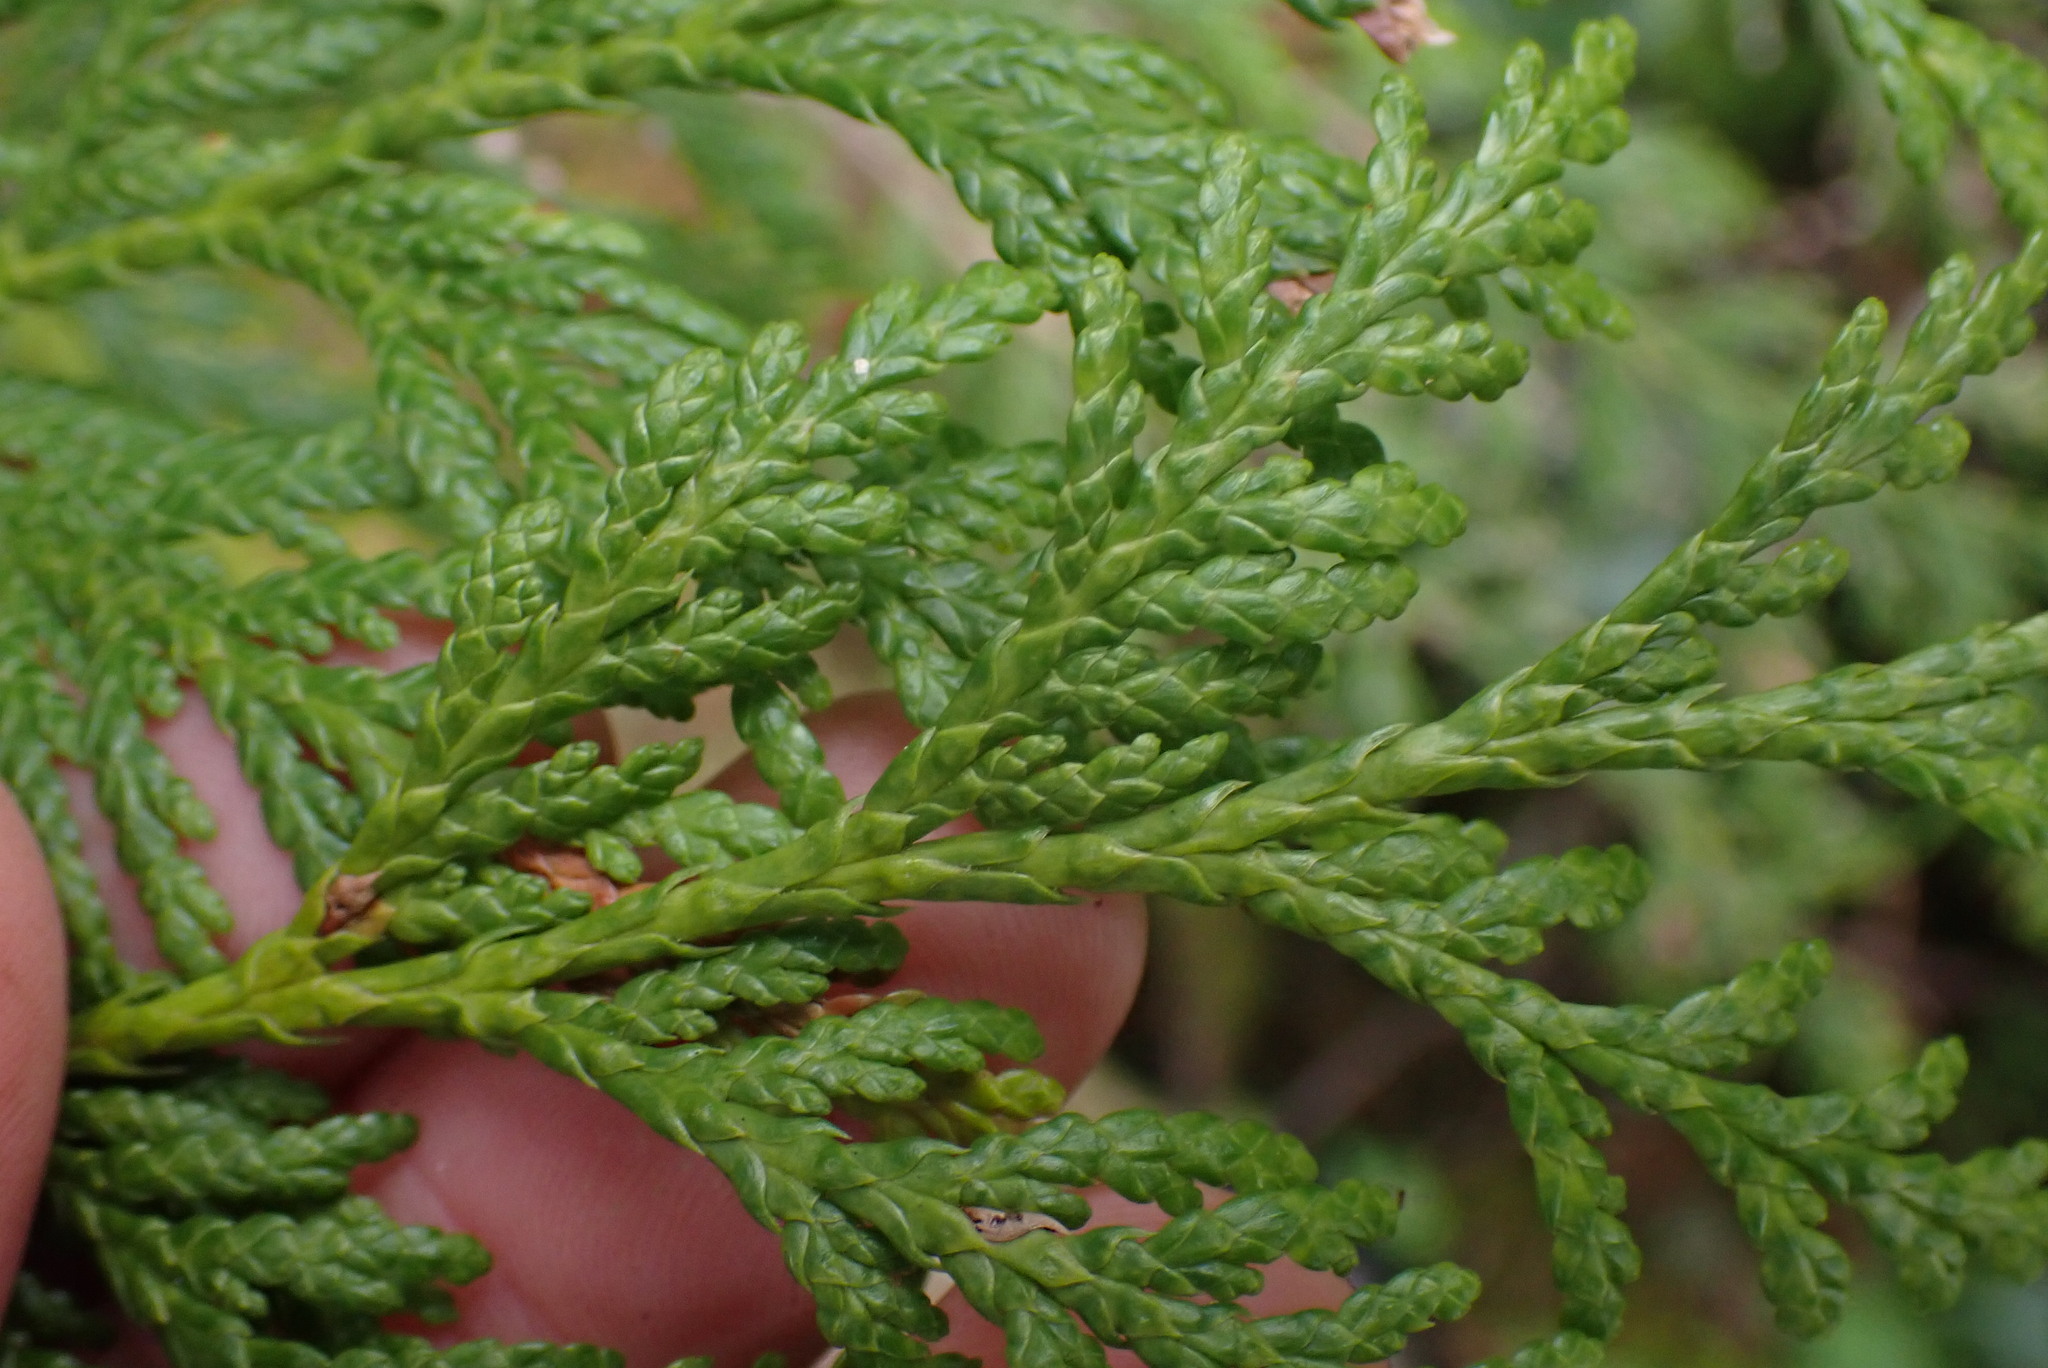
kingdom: Plantae
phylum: Tracheophyta
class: Pinopsida
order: Pinales
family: Cupressaceae
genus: Thuja
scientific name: Thuja plicata
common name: Western red-cedar
